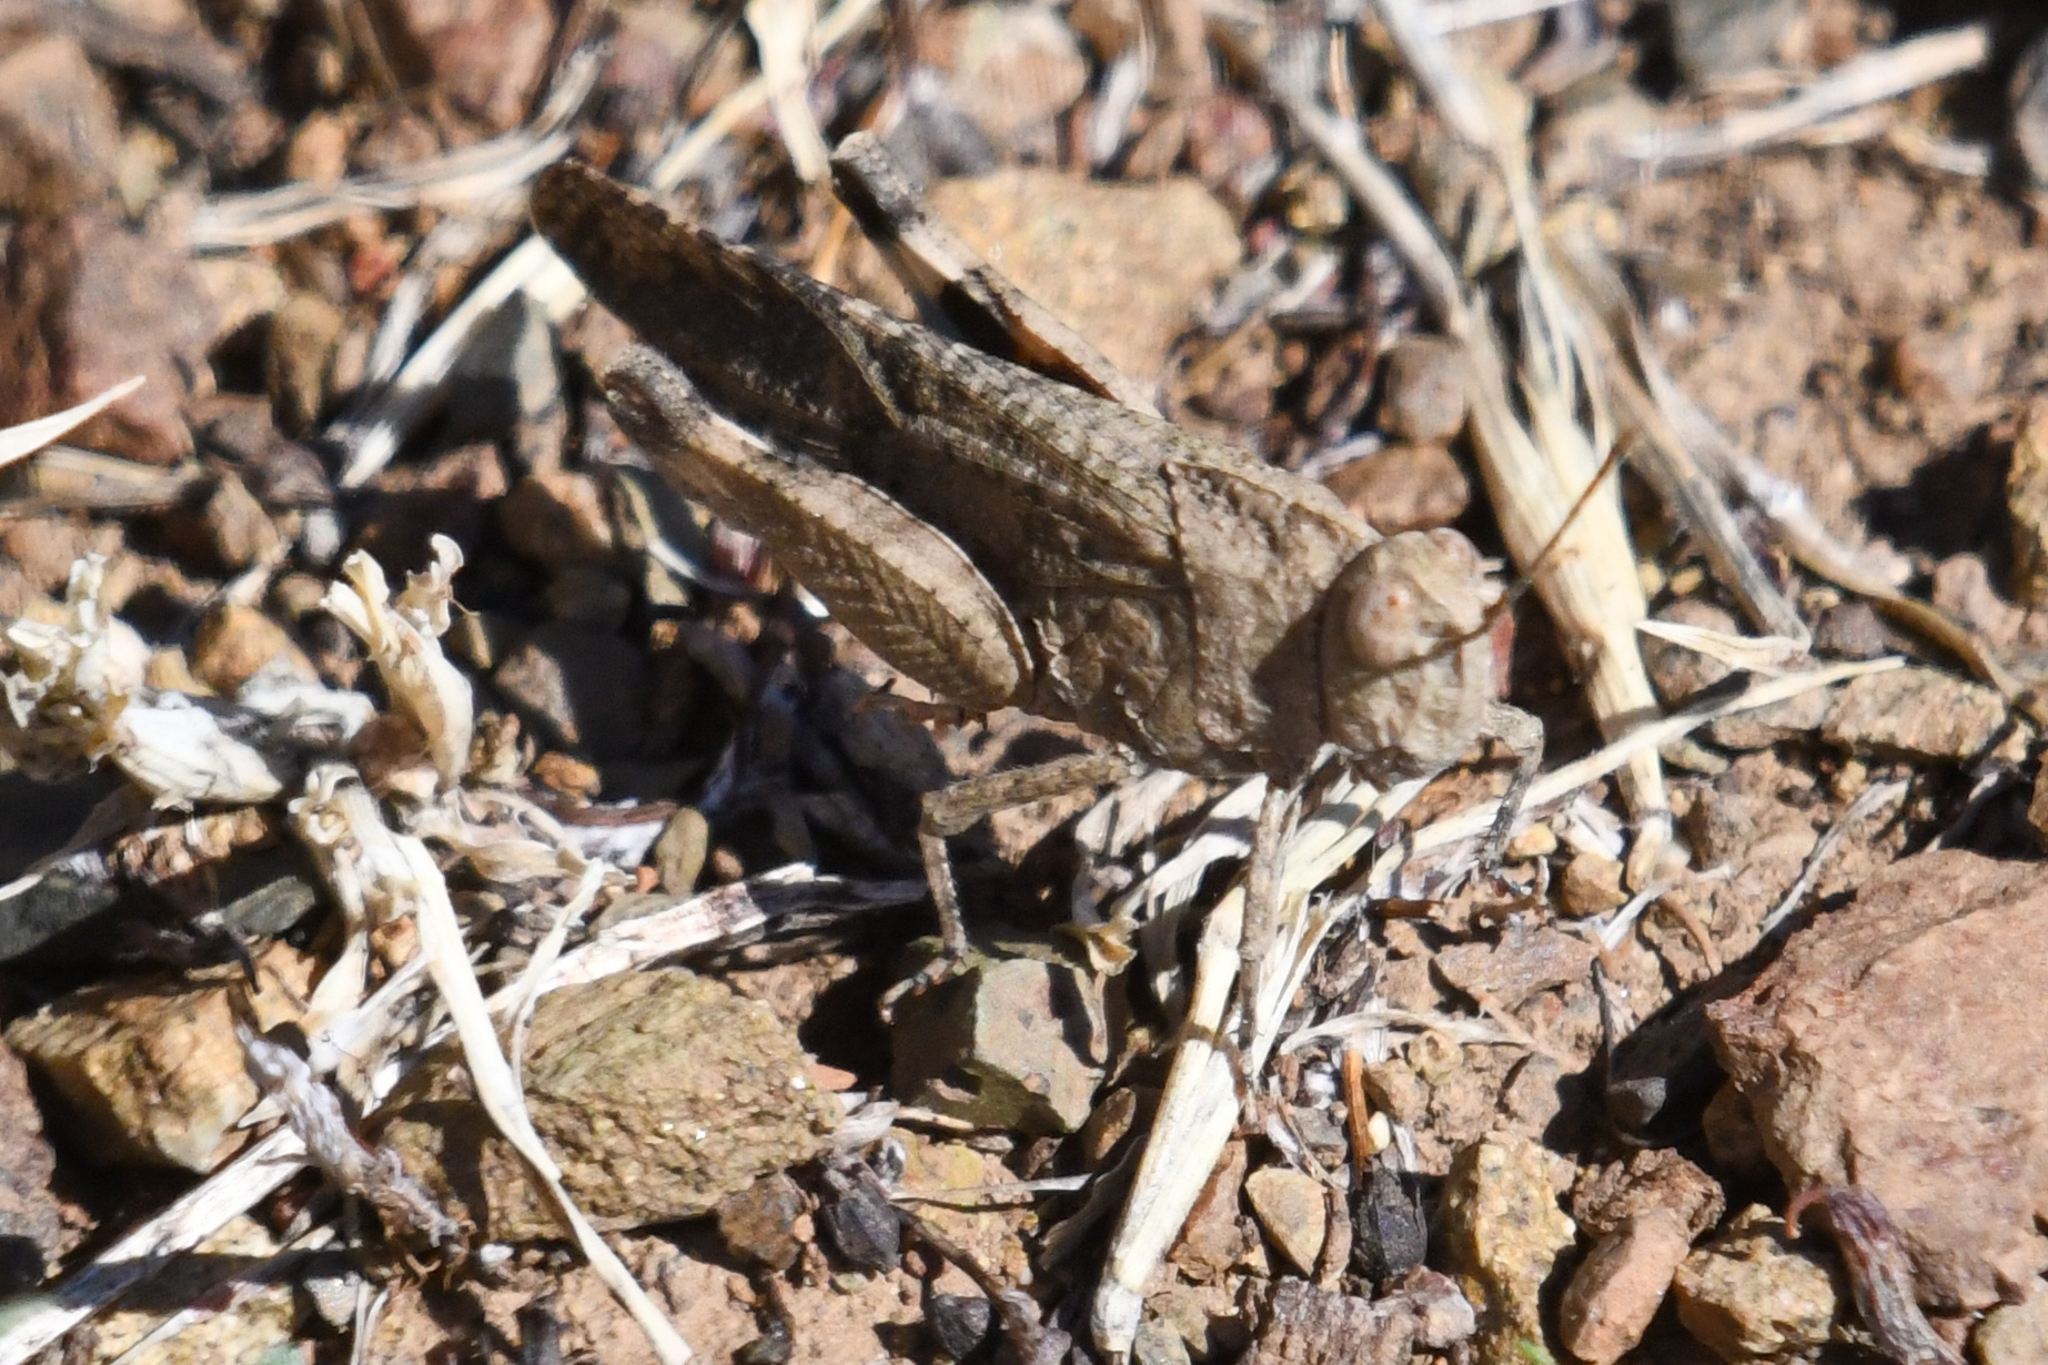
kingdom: Animalia
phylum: Arthropoda
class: Insecta
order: Orthoptera
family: Acrididae
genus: Lactista
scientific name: Lactista gibbosus
